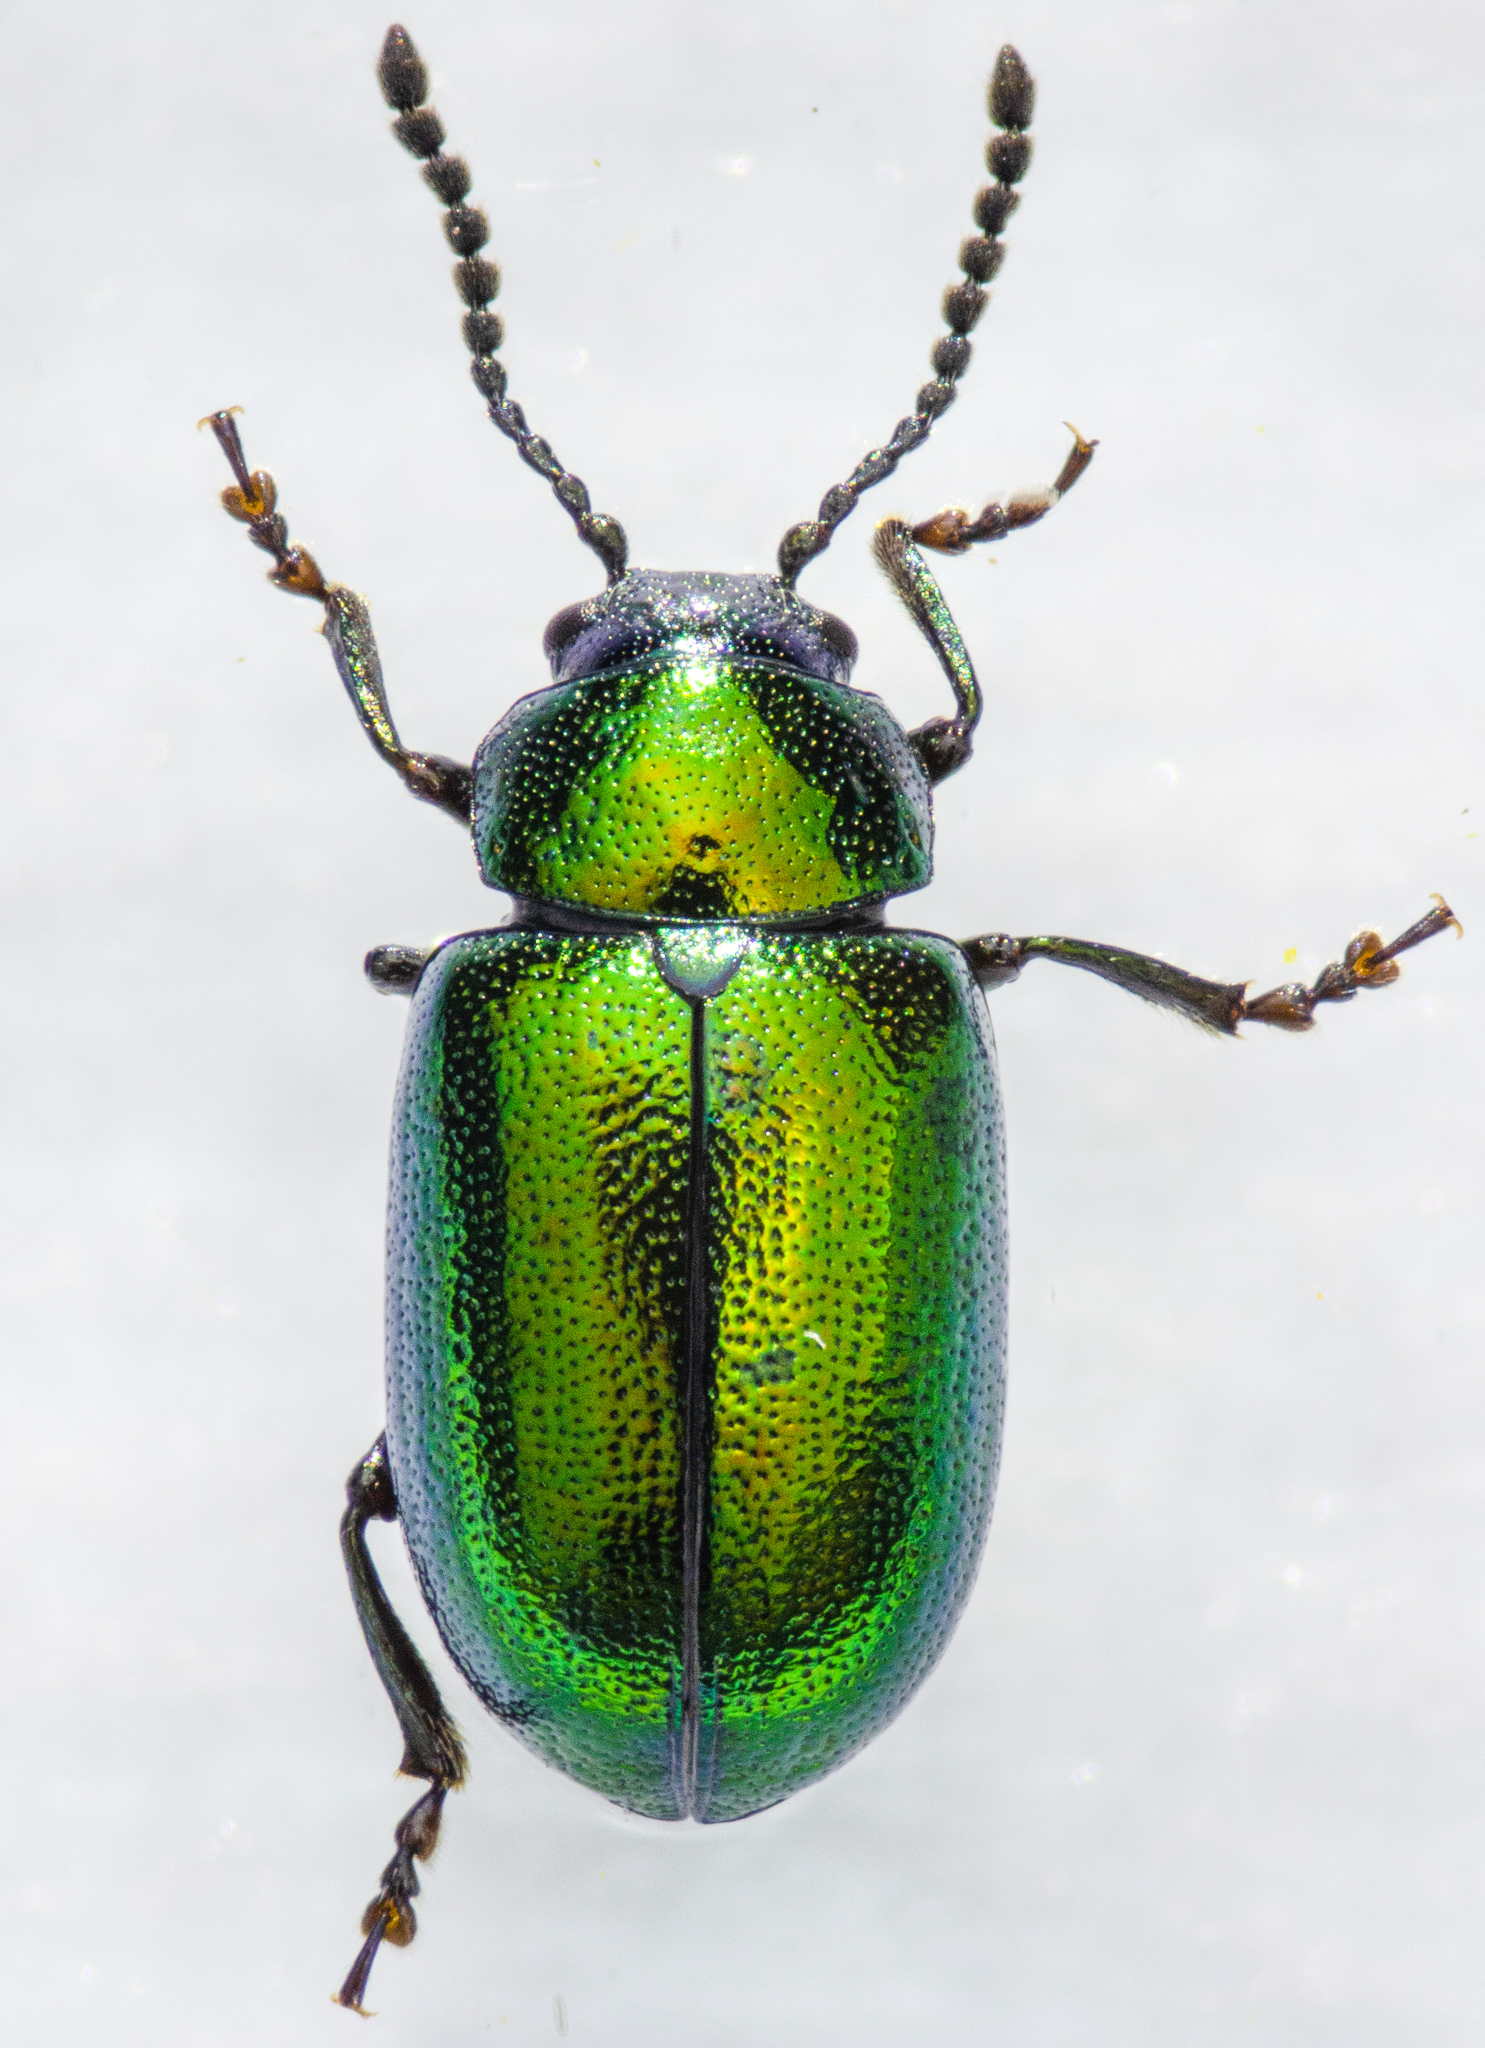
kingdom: Animalia
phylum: Arthropoda
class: Insecta
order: Coleoptera
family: Chrysomelidae
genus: Gastrophysa
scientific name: Gastrophysa cyanea
